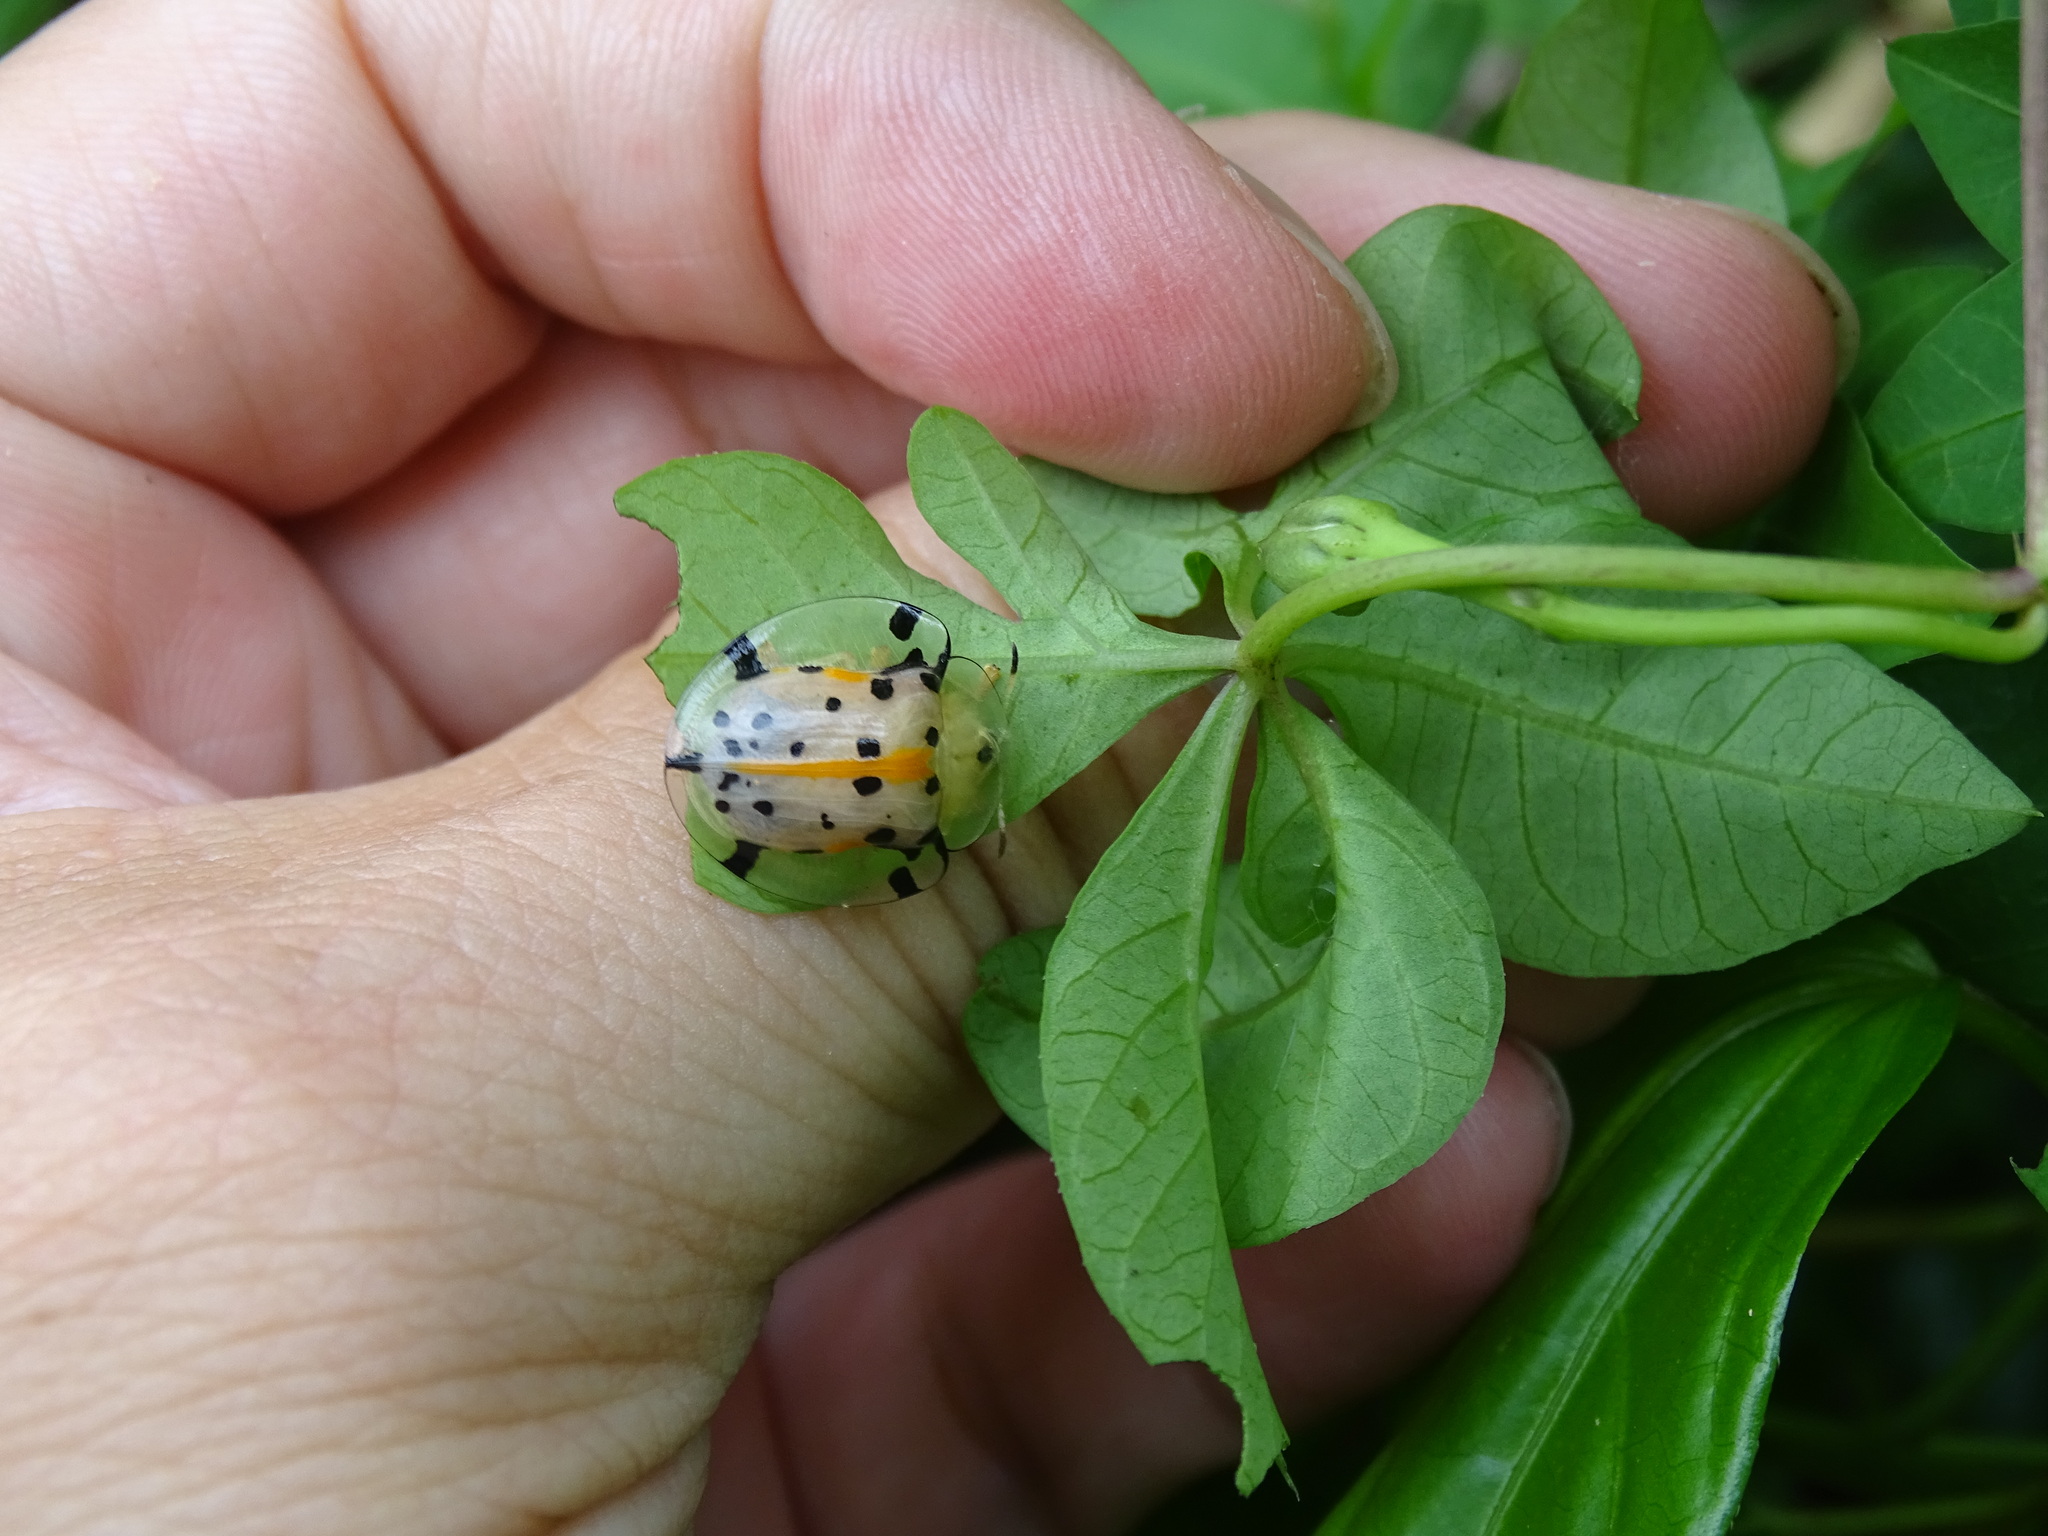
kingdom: Animalia
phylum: Arthropoda
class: Insecta
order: Coleoptera
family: Chrysomelidae
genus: Aspidimorpha
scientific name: Aspidimorpha miliaris
